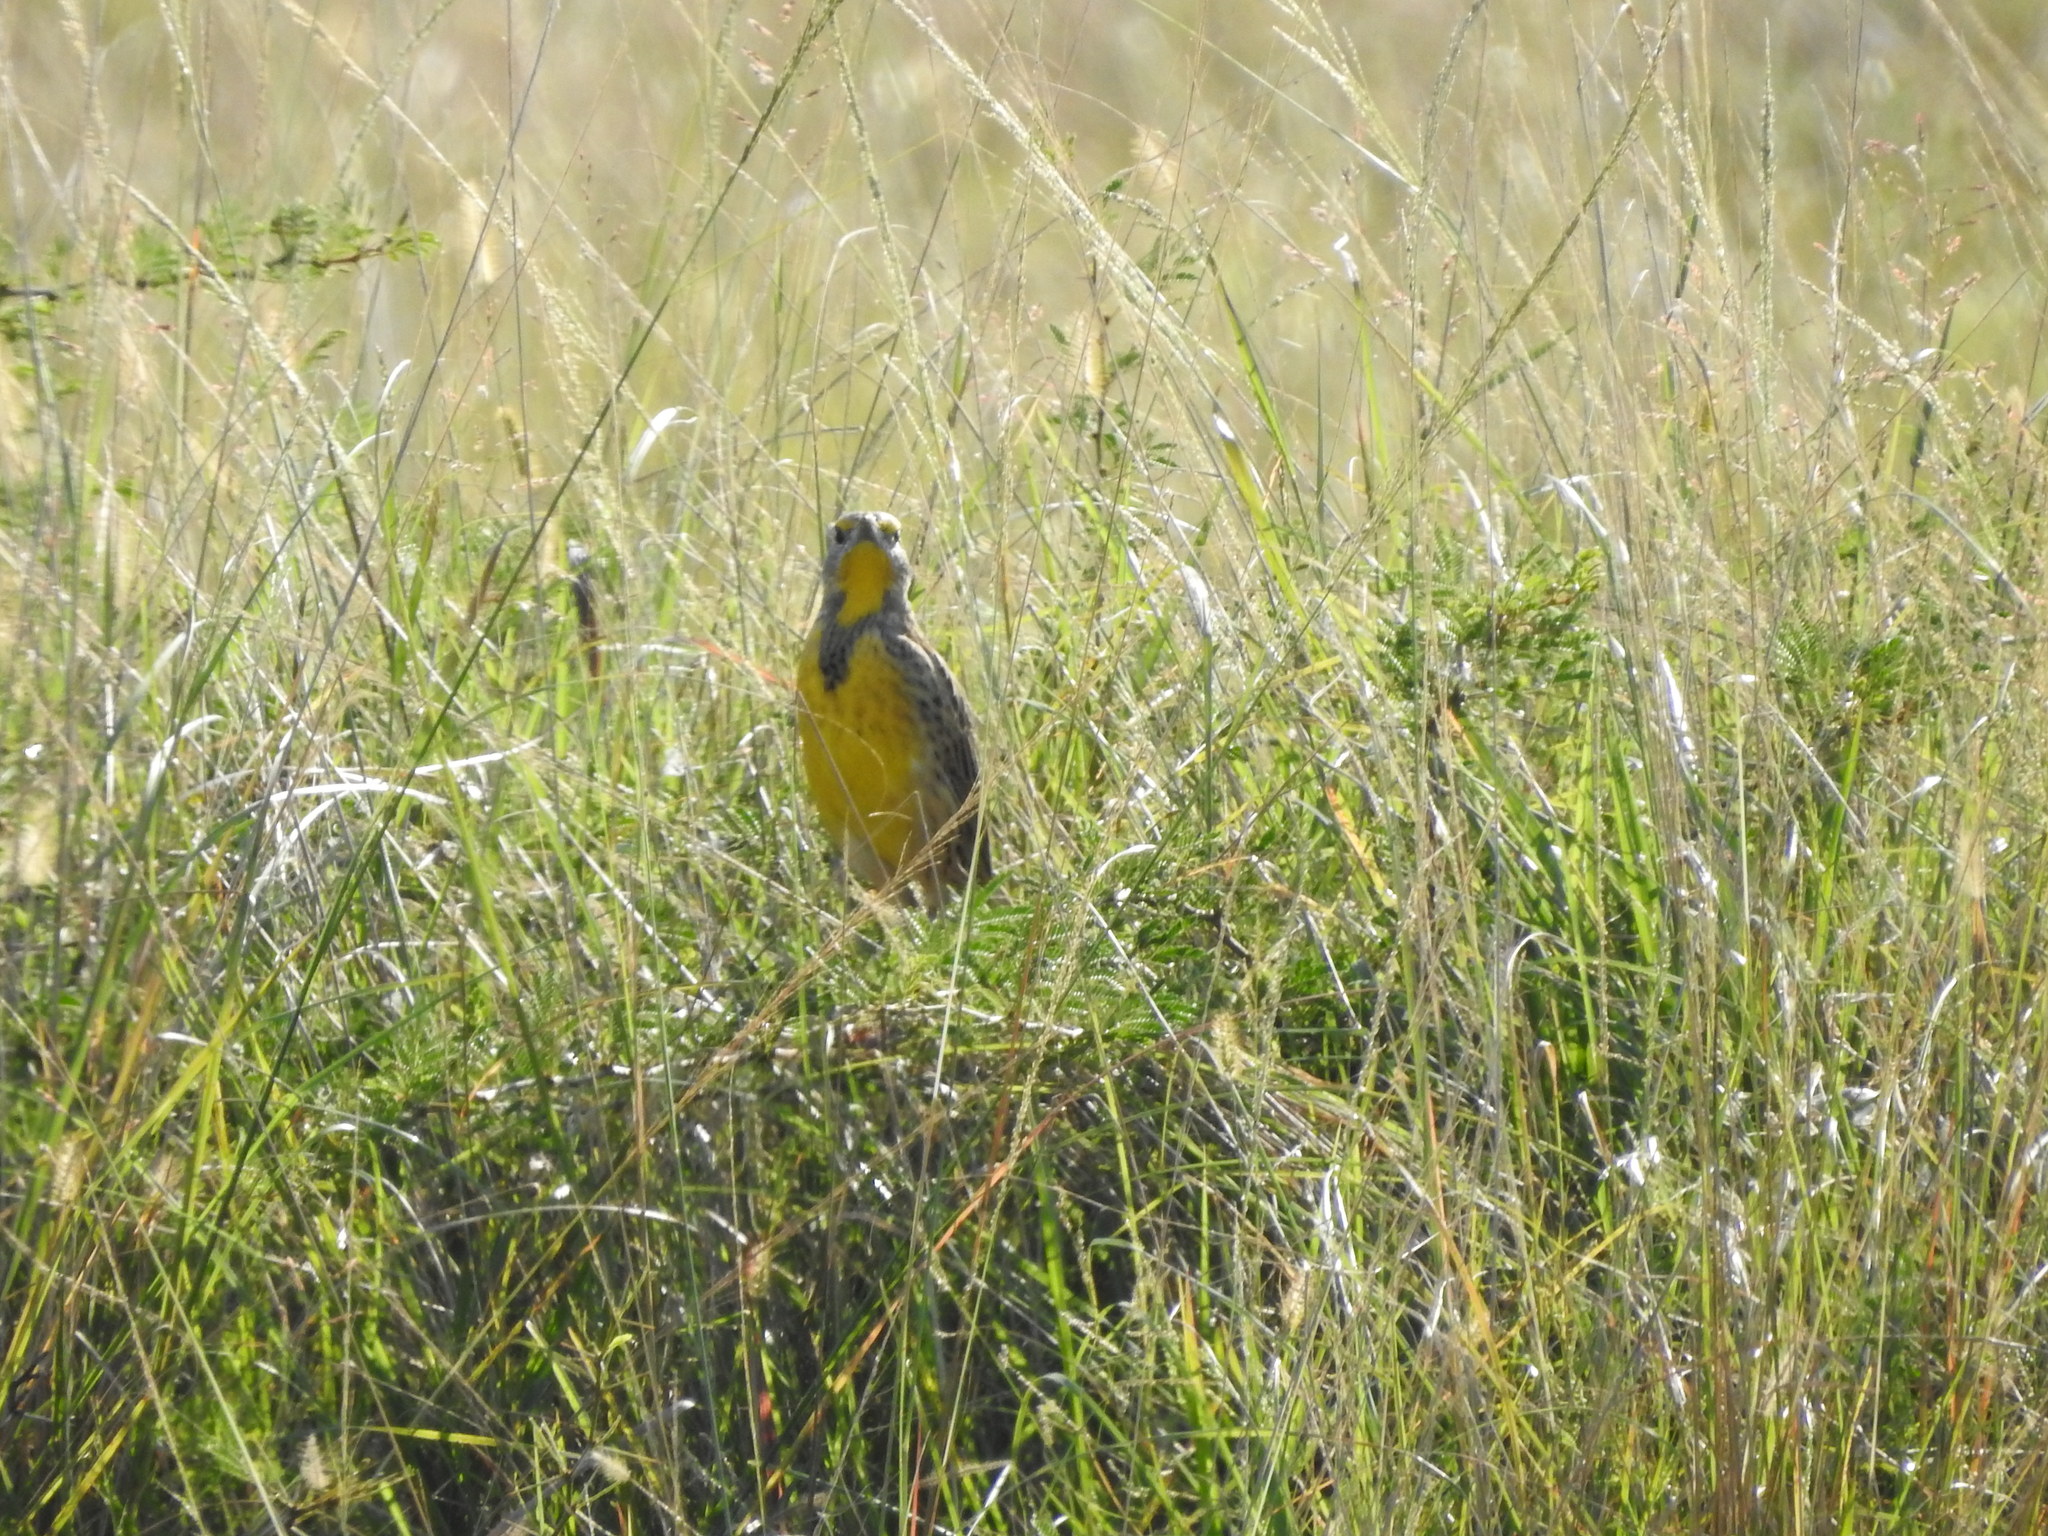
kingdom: Animalia
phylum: Chordata
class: Aves
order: Passeriformes
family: Icteridae
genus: Sturnella
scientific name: Sturnella magna
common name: Eastern meadowlark
